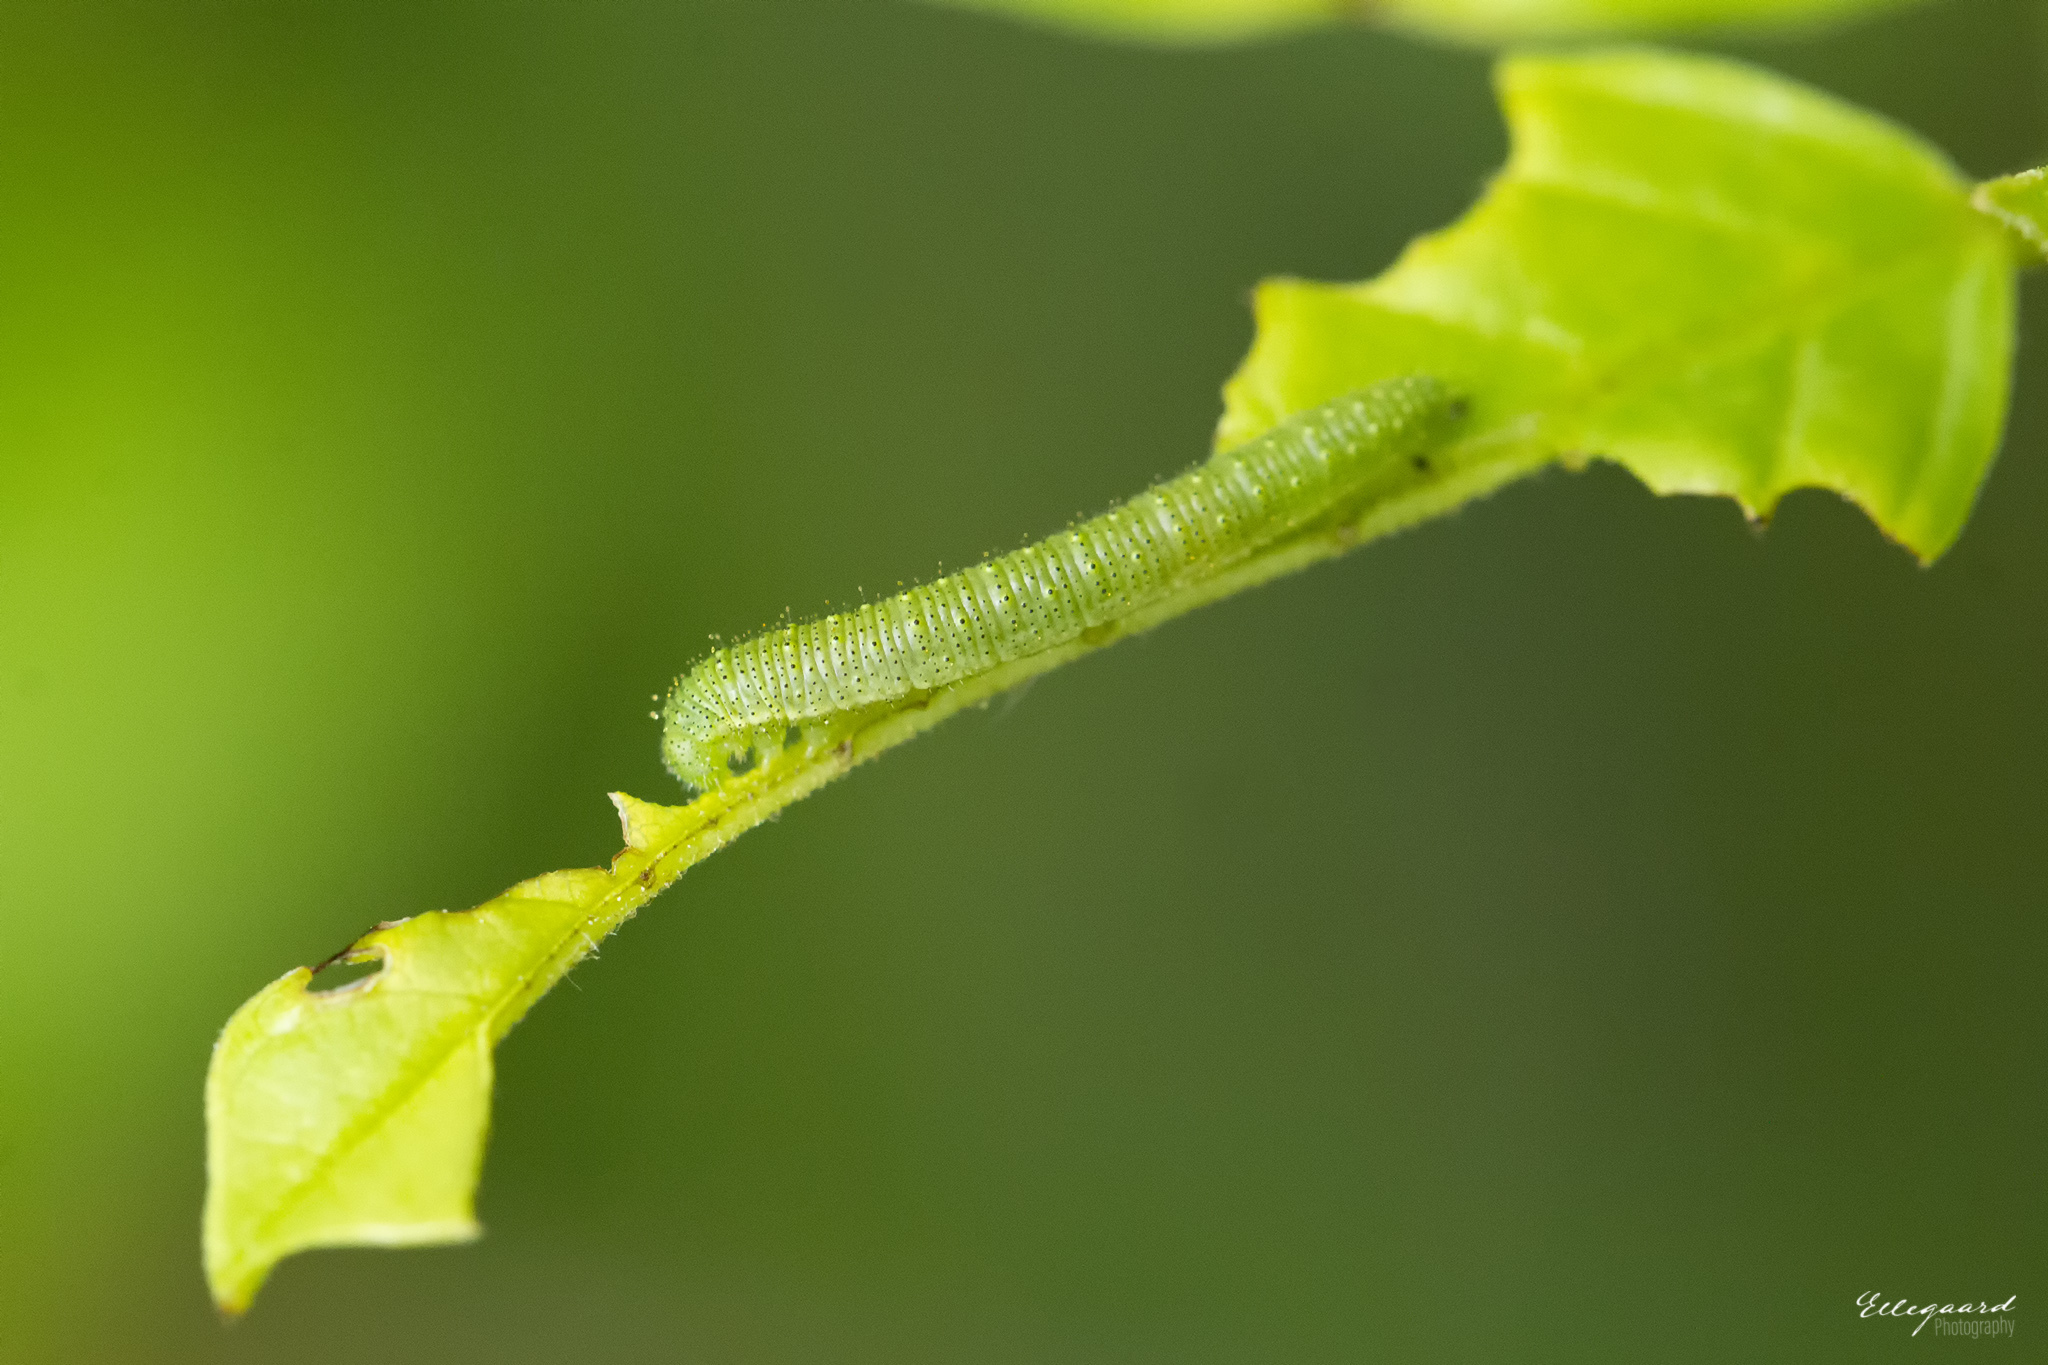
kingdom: Animalia
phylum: Arthropoda
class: Insecta
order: Lepidoptera
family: Pieridae
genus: Gonepteryx
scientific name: Gonepteryx rhamni
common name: Brimstone
